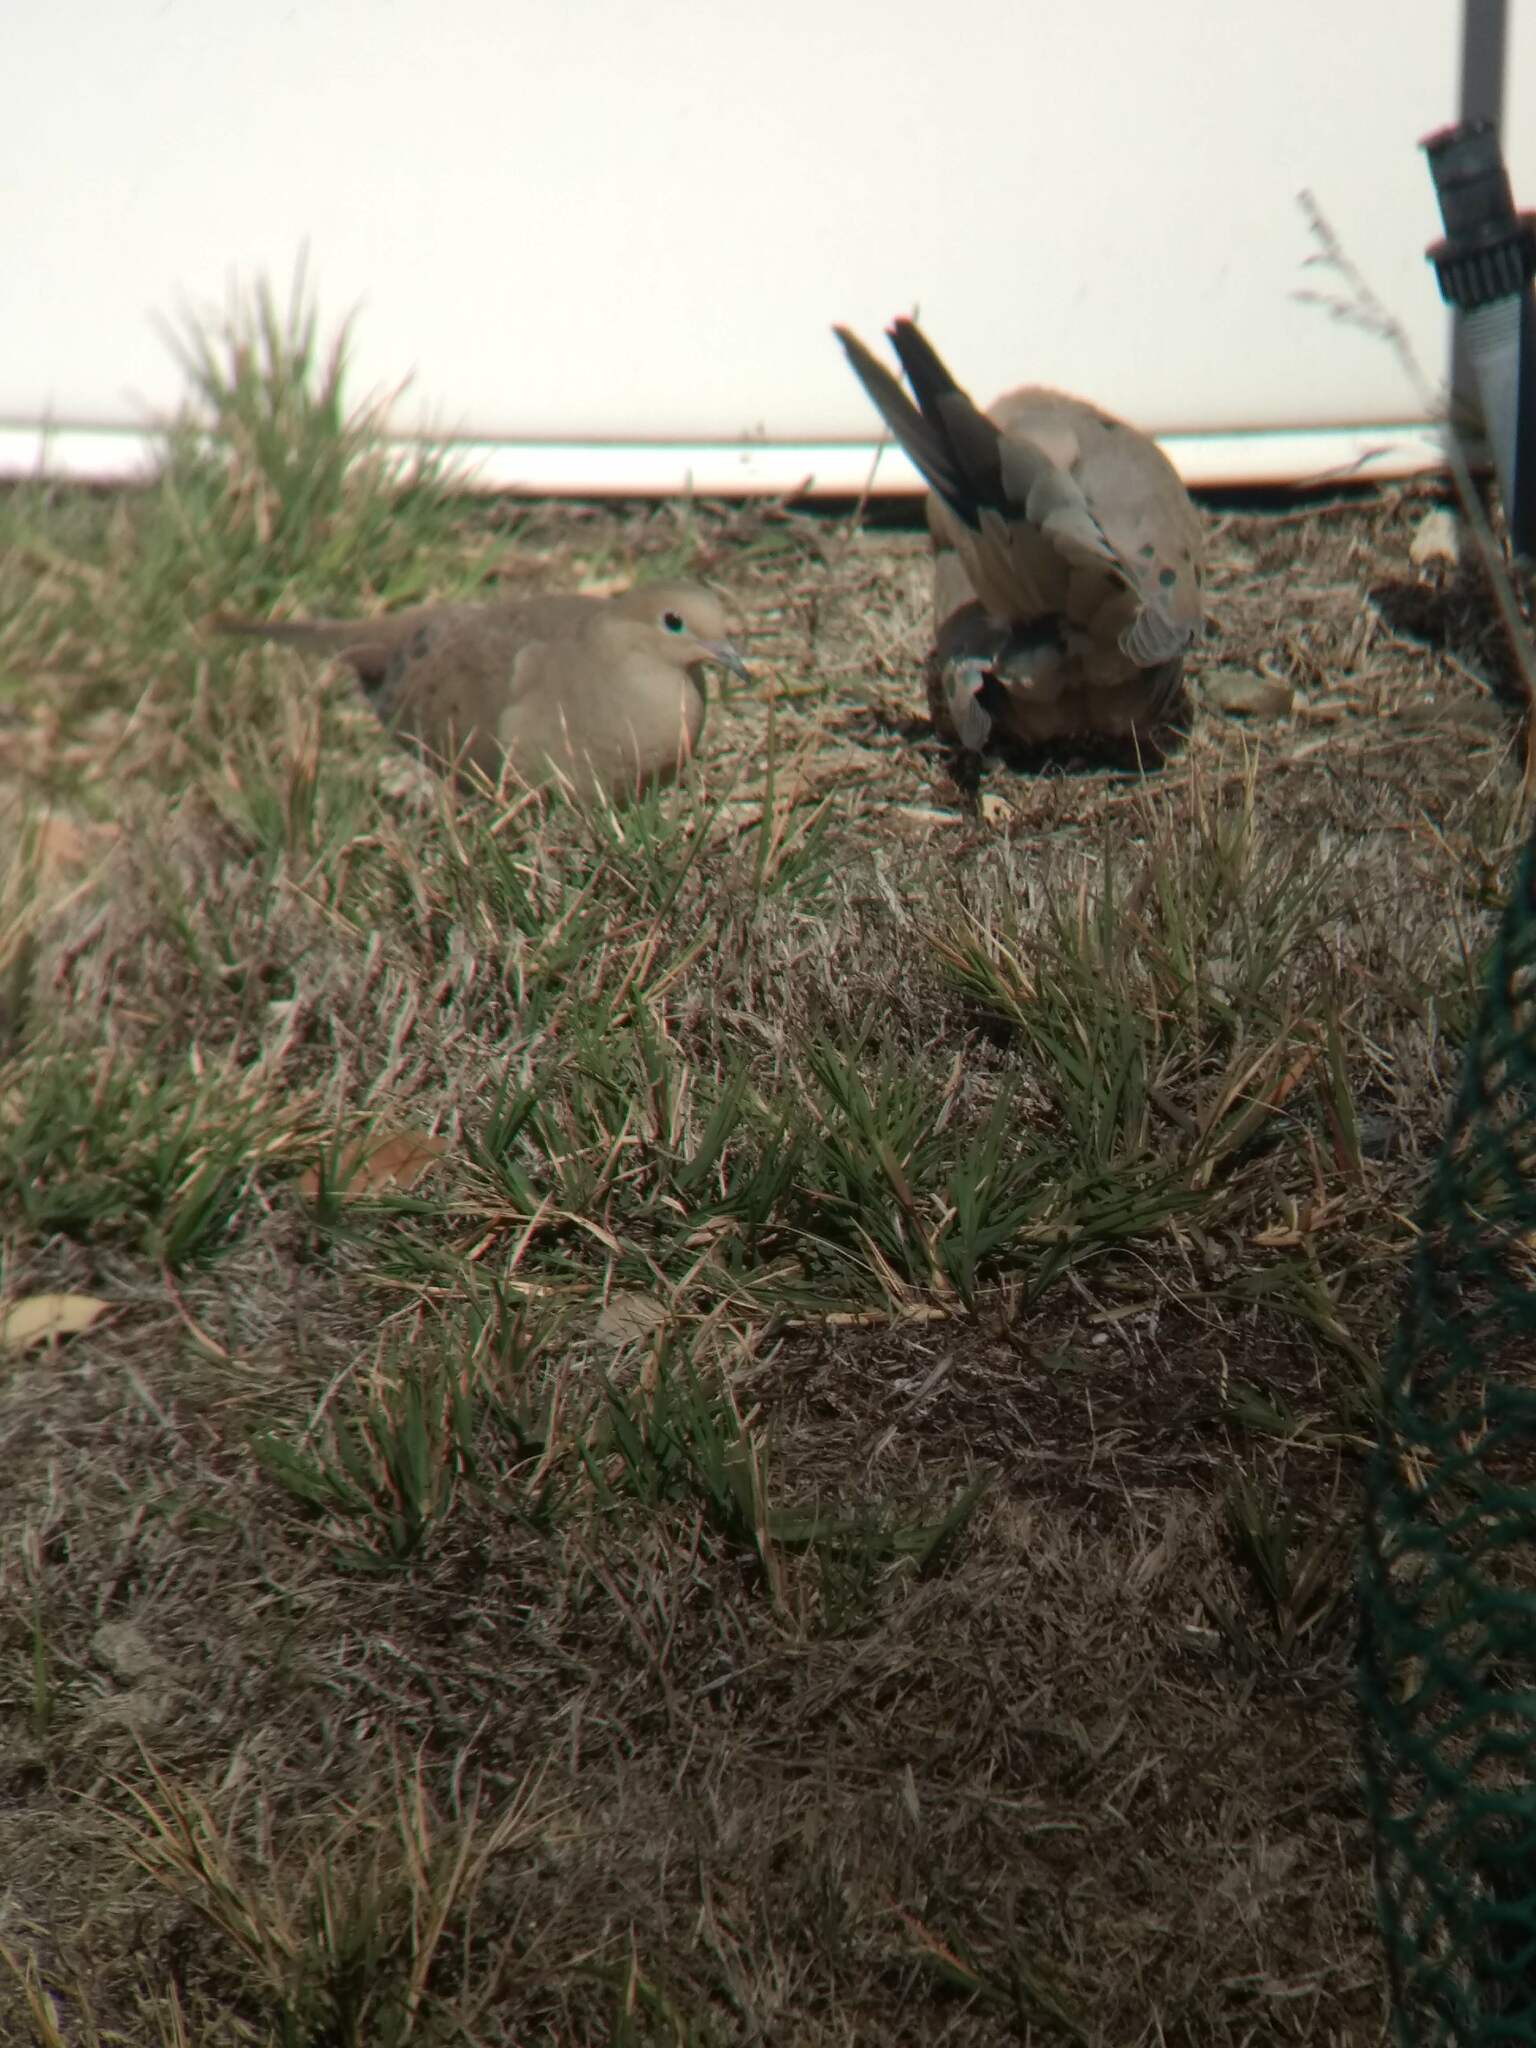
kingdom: Animalia
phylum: Chordata
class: Aves
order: Columbiformes
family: Columbidae
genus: Zenaida
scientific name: Zenaida macroura
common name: Mourning dove
